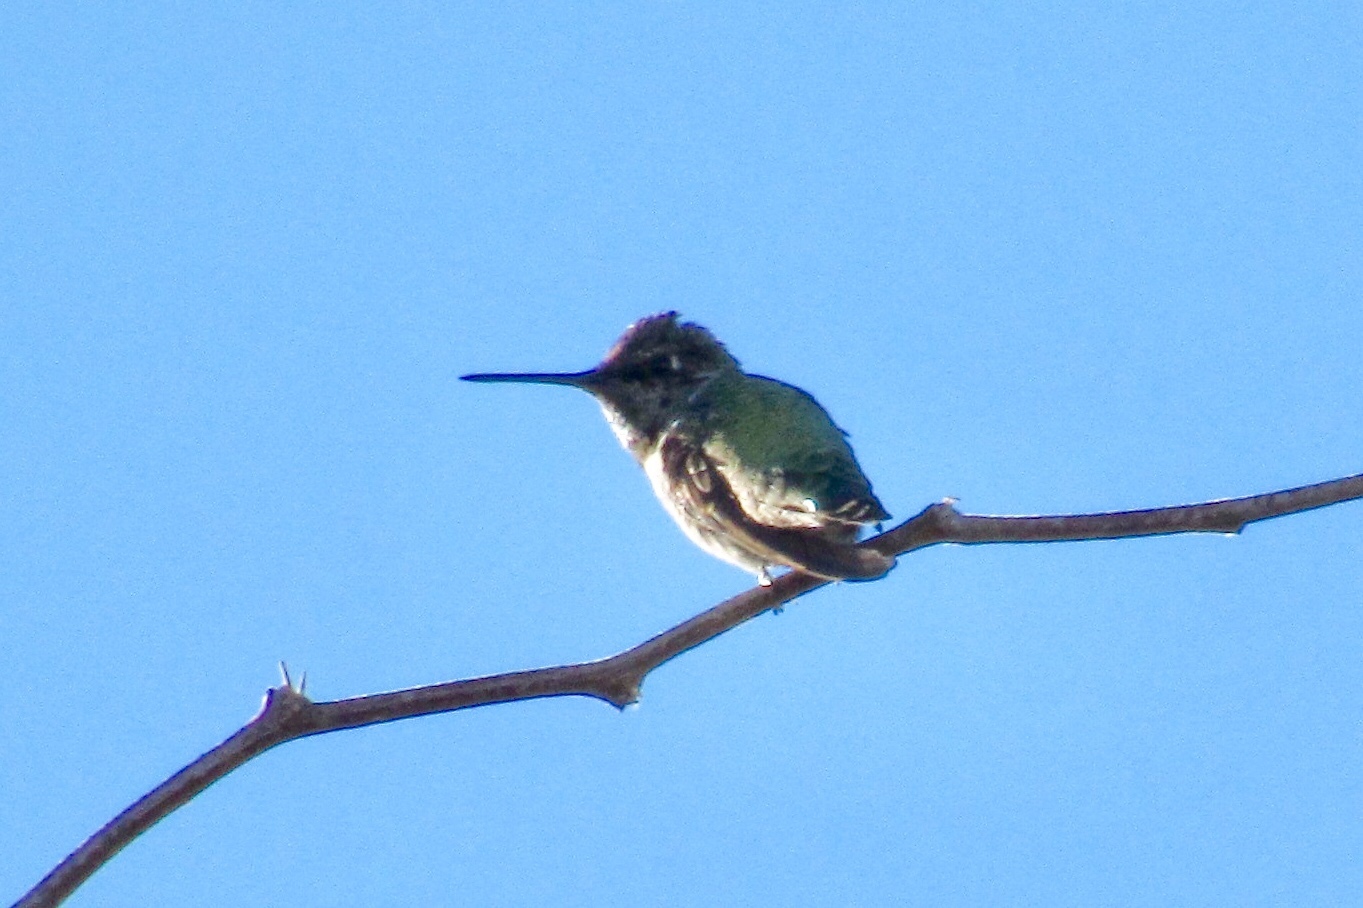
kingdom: Animalia
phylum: Chordata
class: Aves
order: Apodiformes
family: Trochilidae
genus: Calypte
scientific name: Calypte anna
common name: Anna's hummingbird
